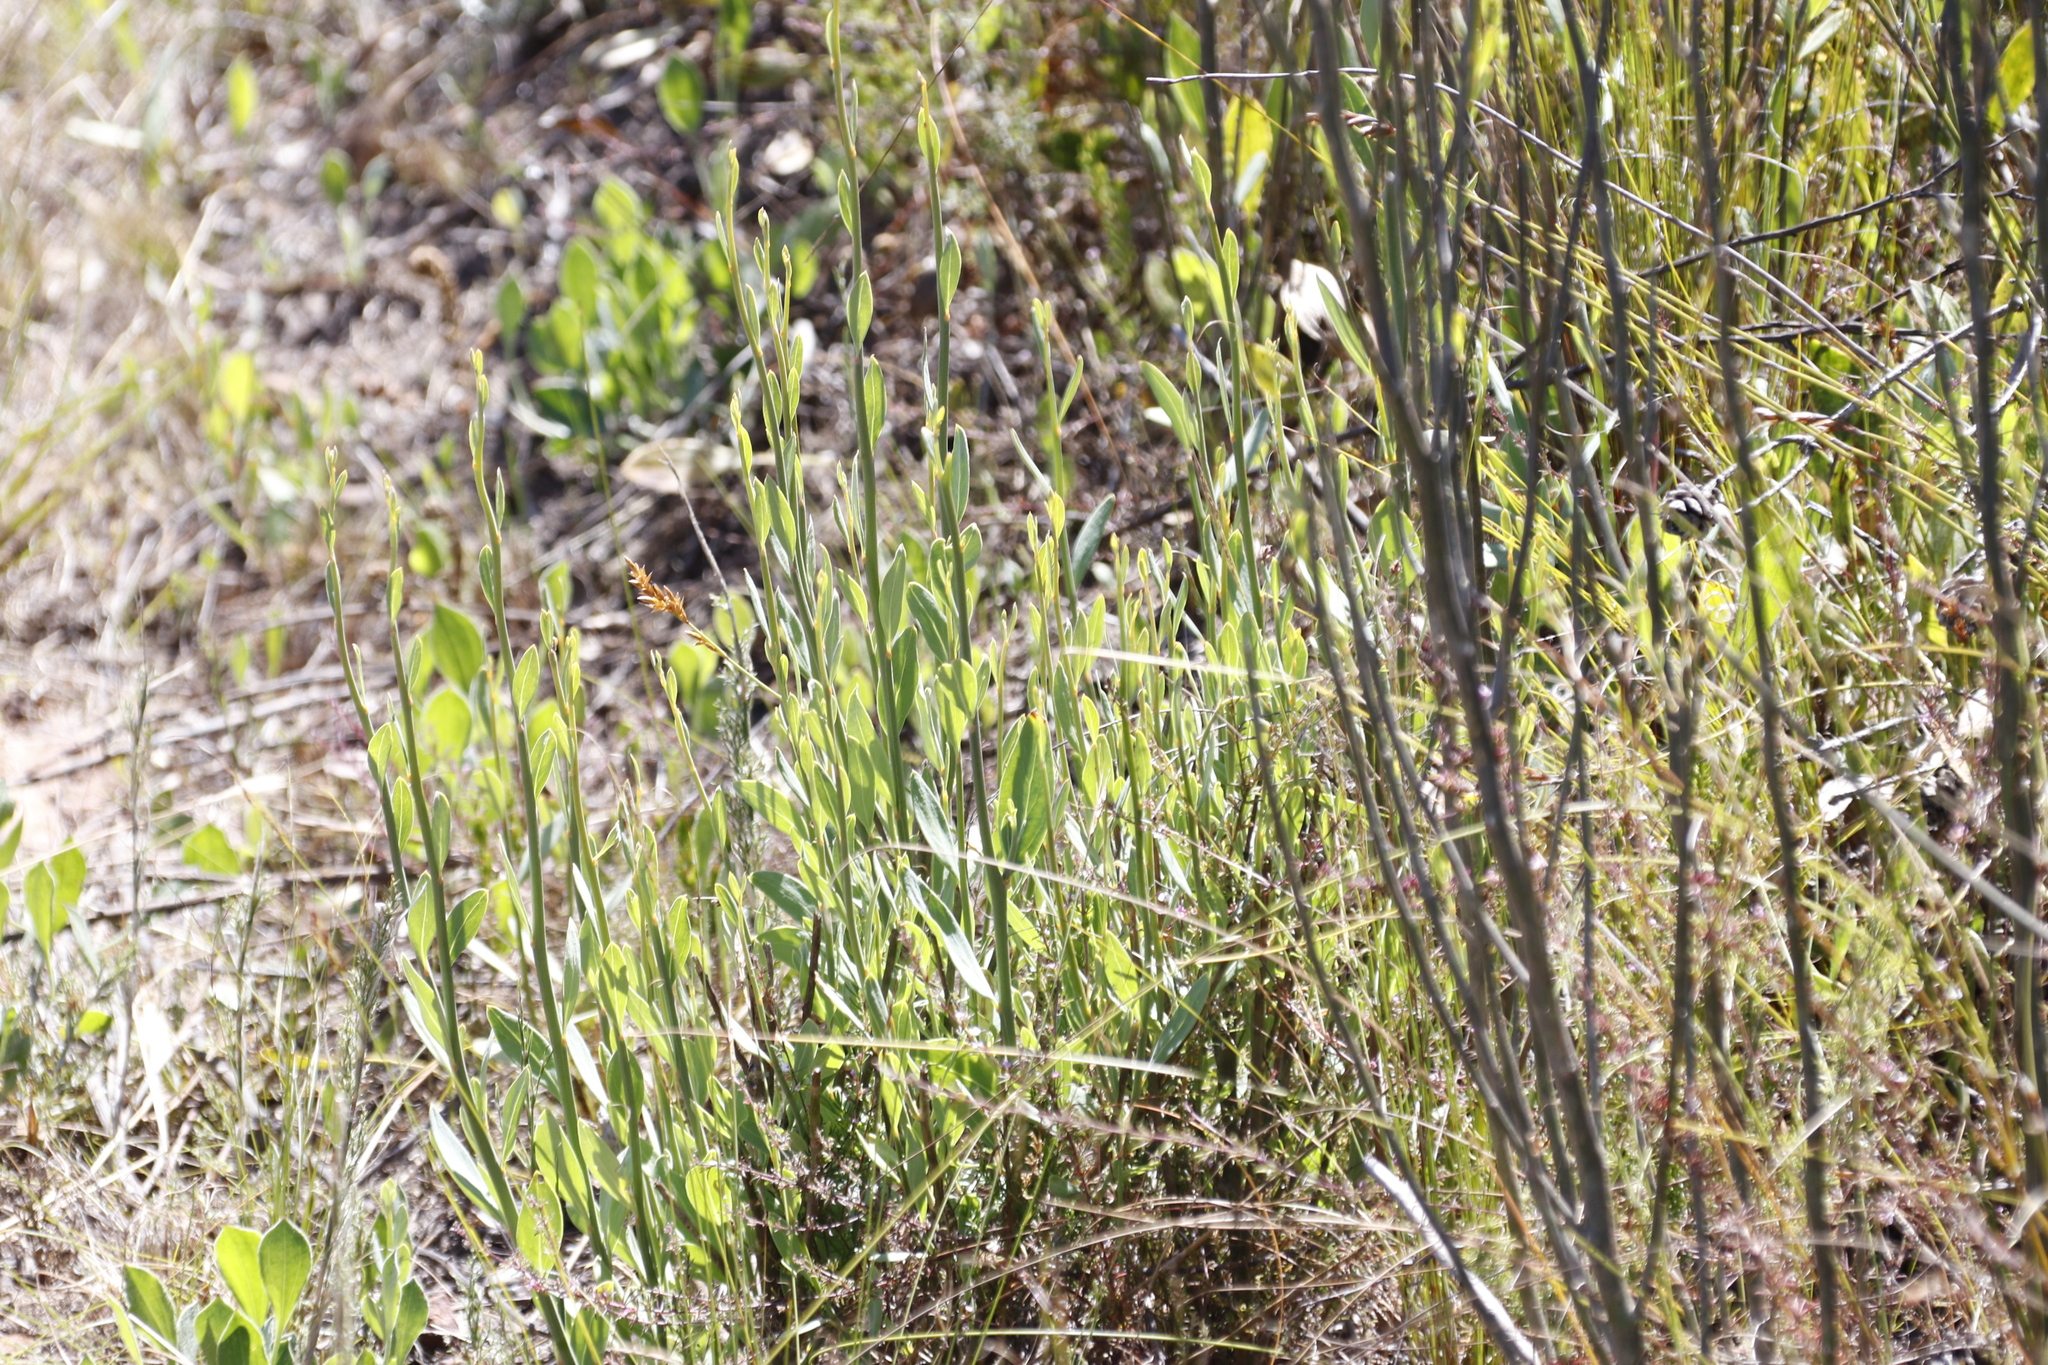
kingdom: Plantae
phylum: Tracheophyta
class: Magnoliopsida
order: Solanales
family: Montiniaceae
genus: Montinia
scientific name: Montinia caryophyllacea
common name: Wild clove-bush
